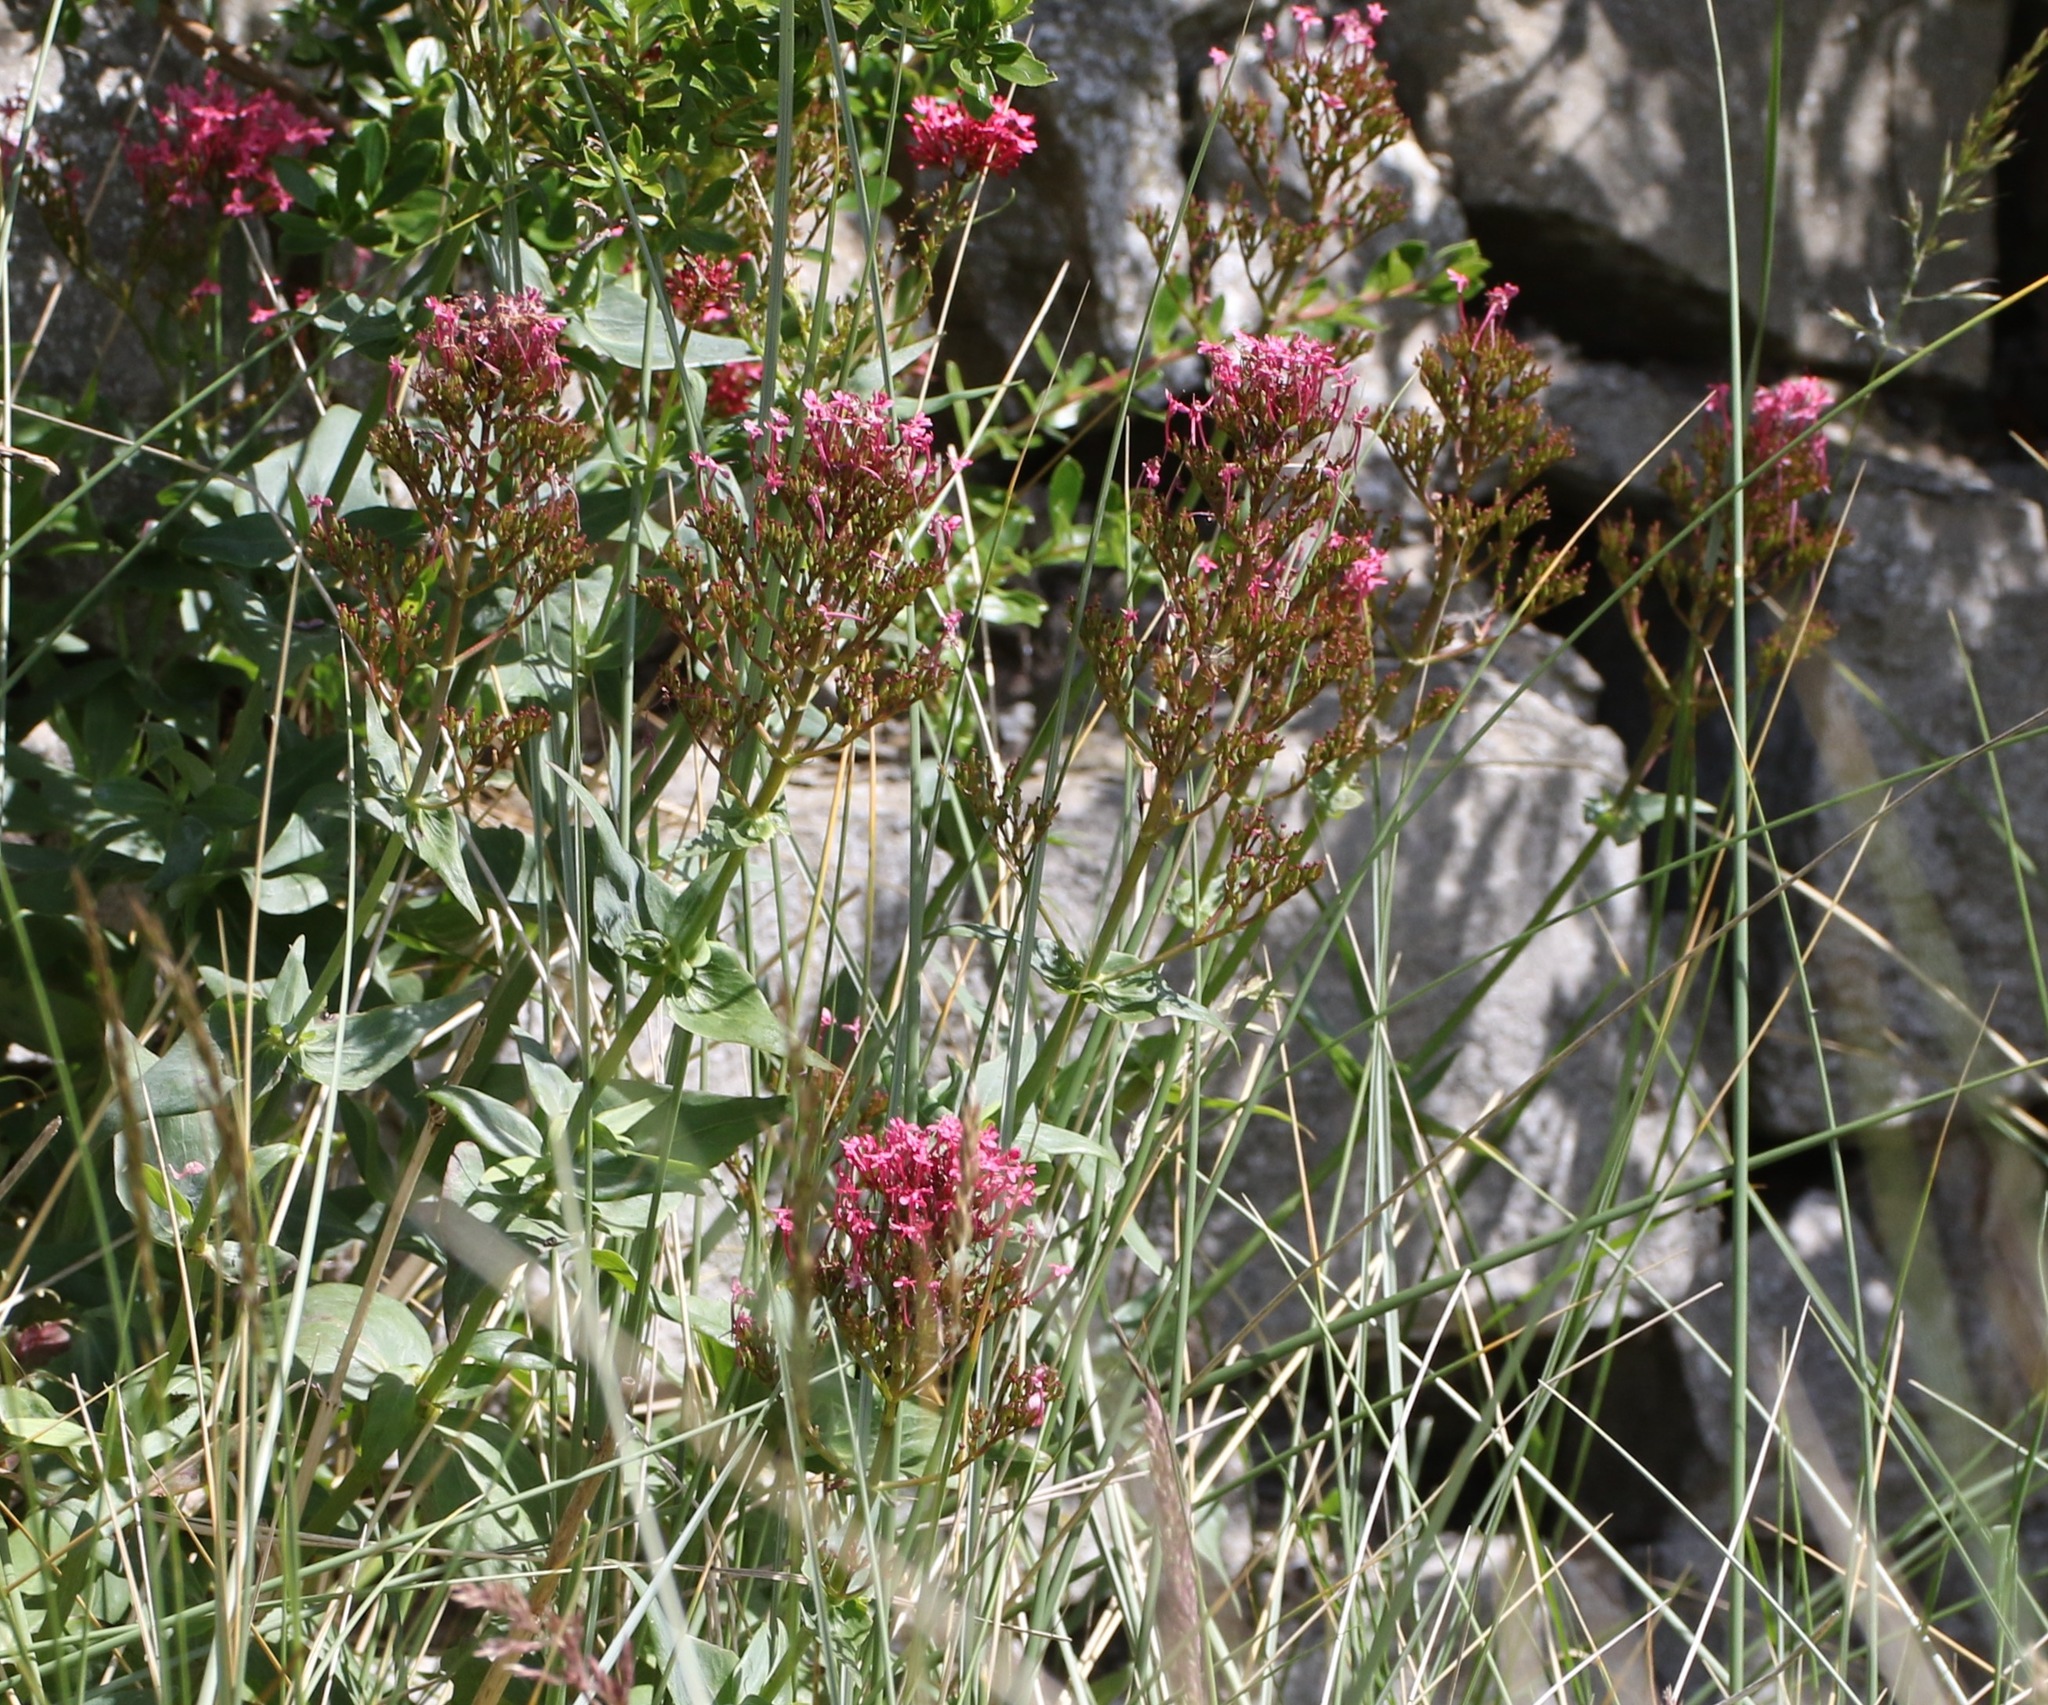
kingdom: Plantae
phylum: Tracheophyta
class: Magnoliopsida
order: Dipsacales
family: Caprifoliaceae
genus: Centranthus
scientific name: Centranthus ruber
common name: Red valerian
